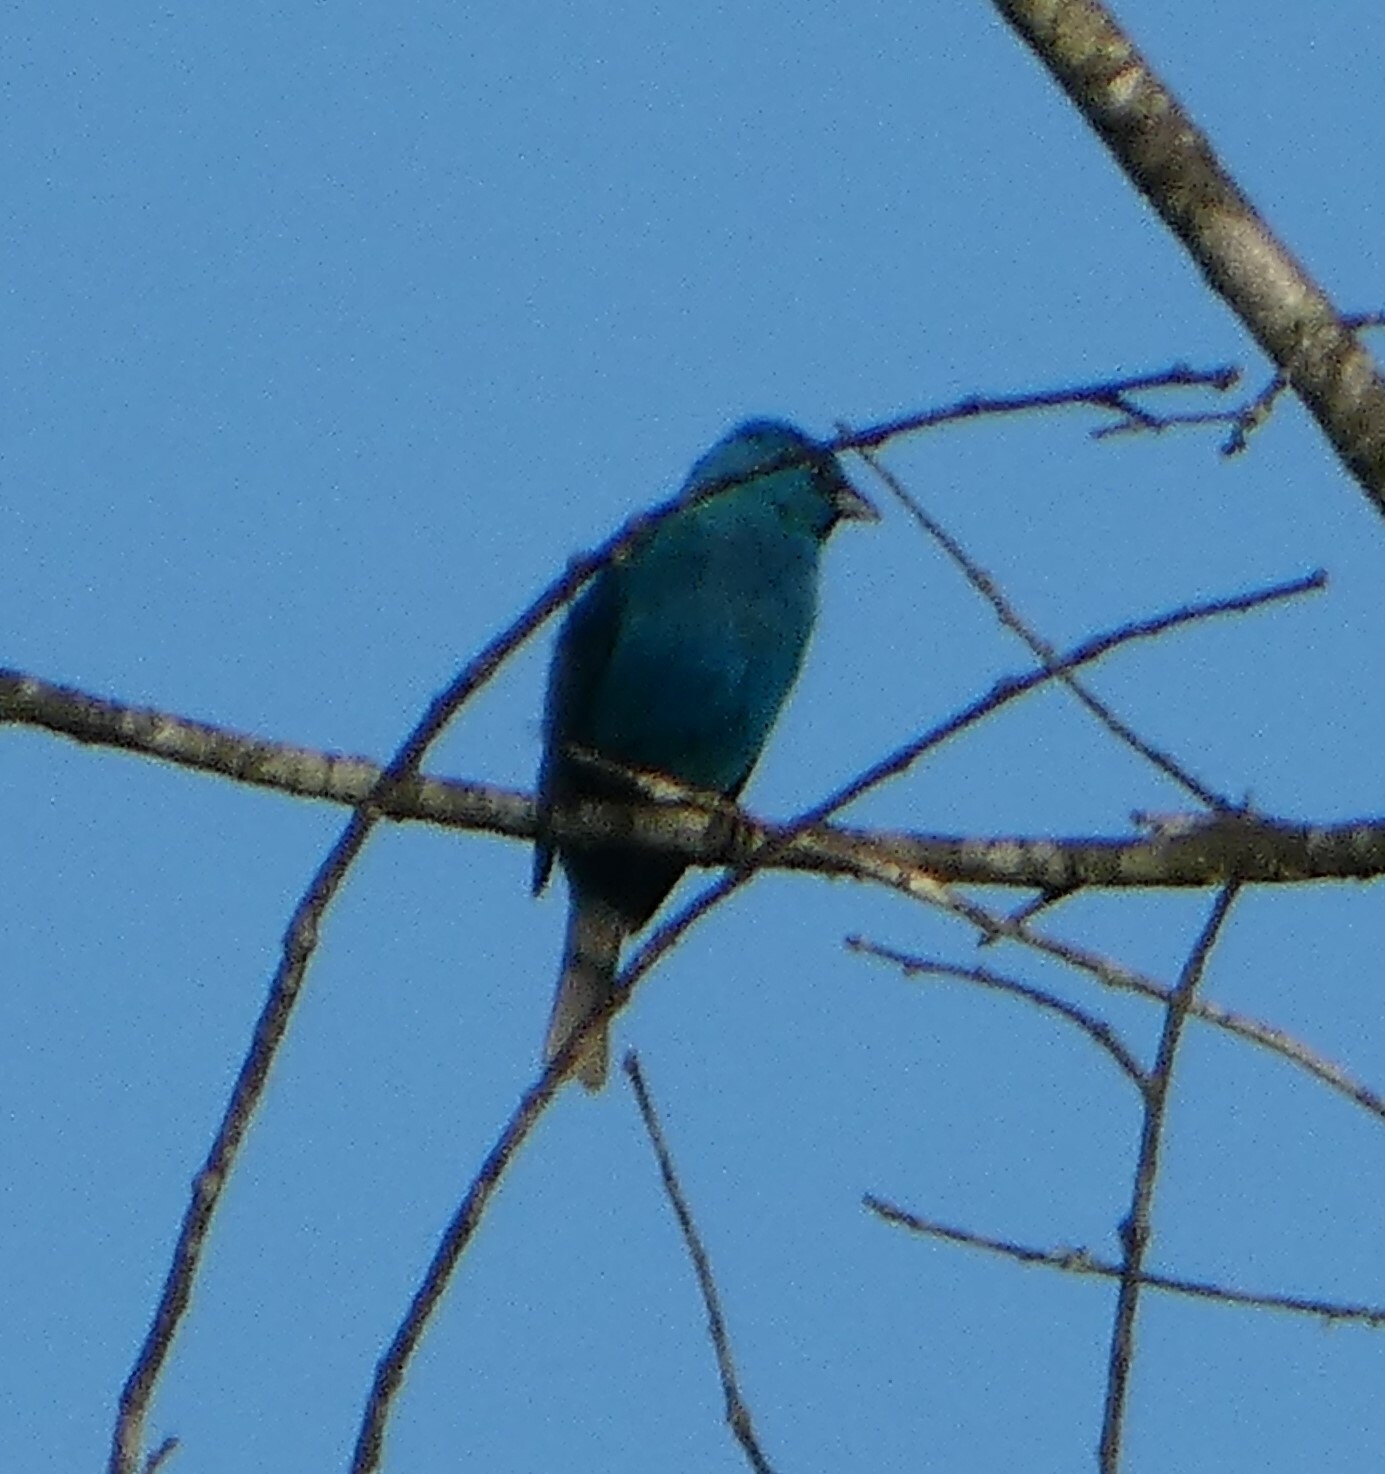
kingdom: Animalia
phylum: Chordata
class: Aves
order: Passeriformes
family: Cardinalidae
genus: Passerina
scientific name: Passerina cyanea
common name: Indigo bunting
